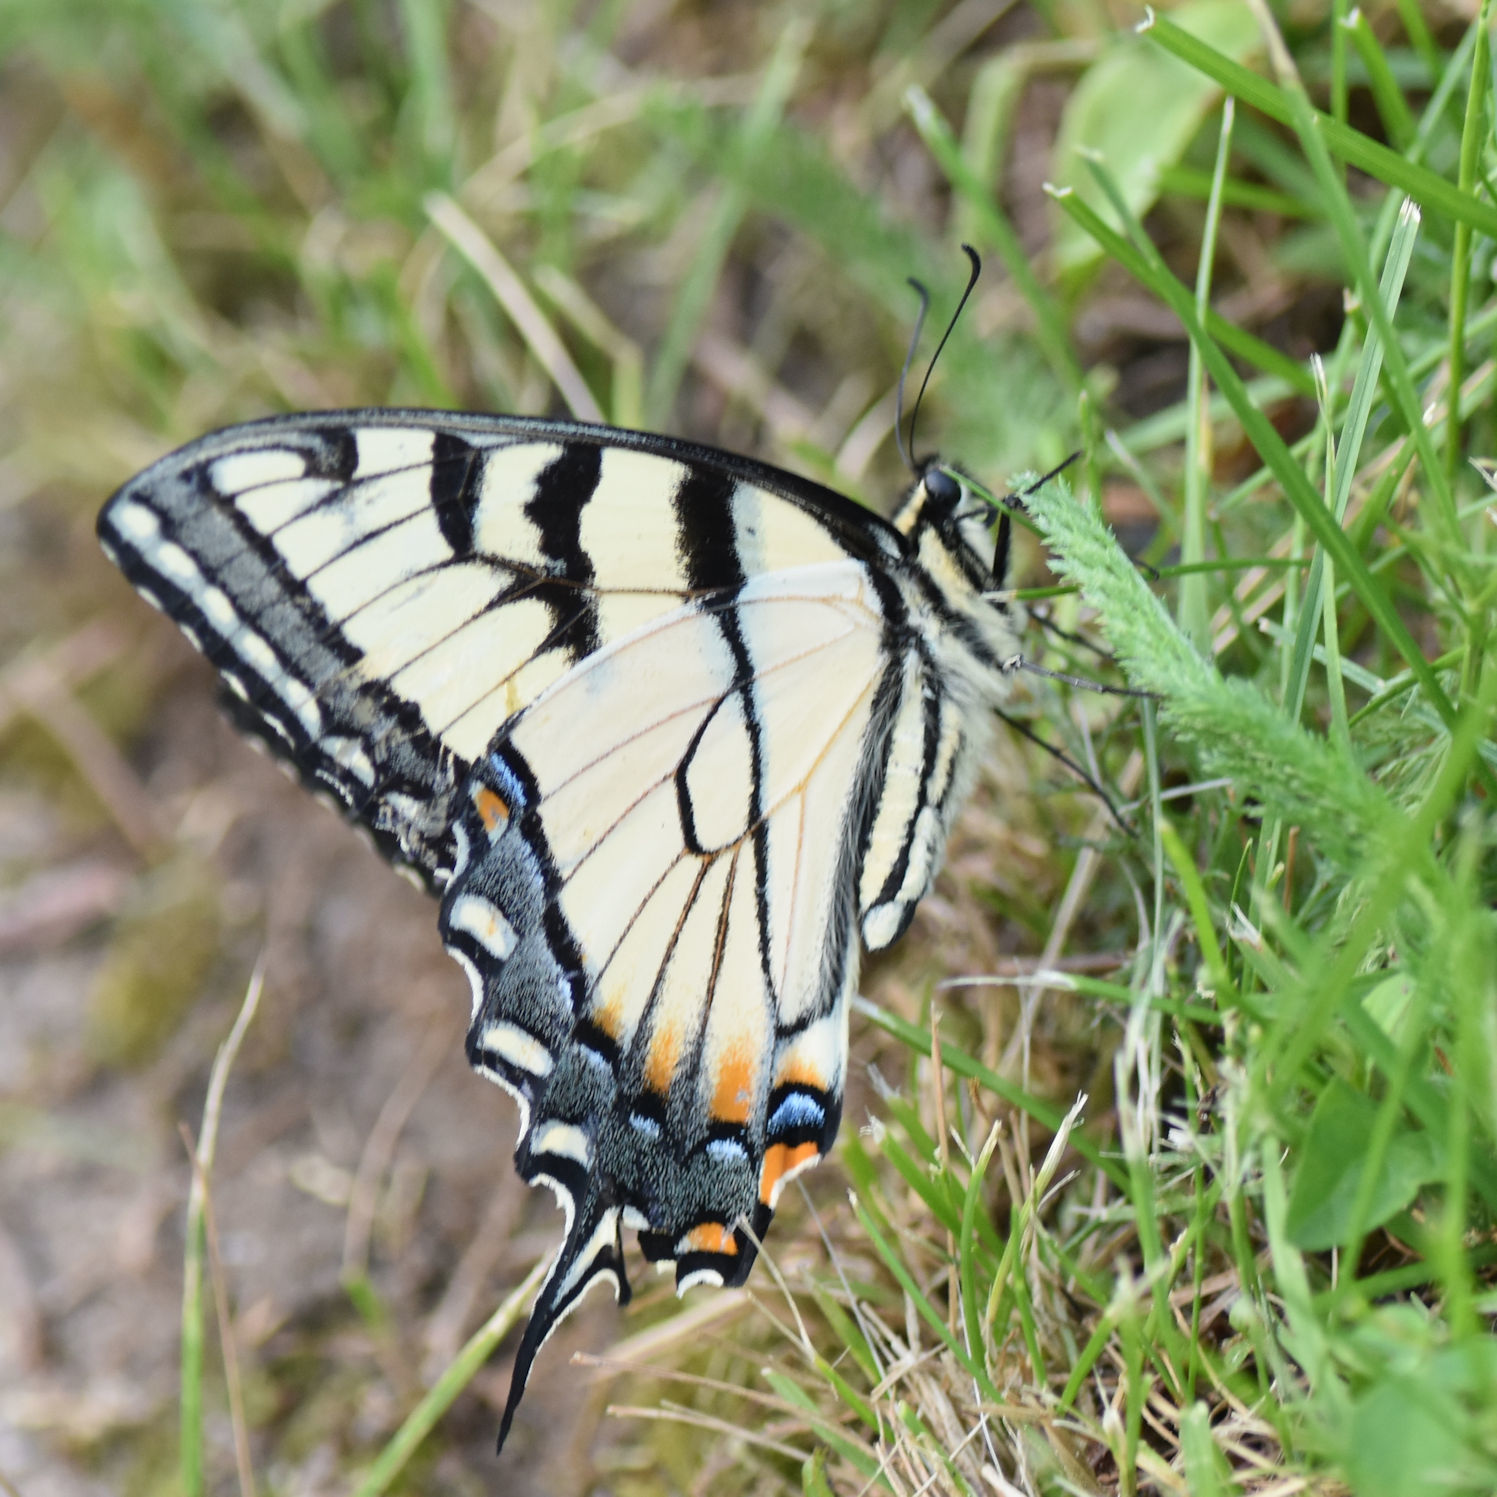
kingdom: Animalia
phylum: Arthropoda
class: Insecta
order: Lepidoptera
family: Papilionidae
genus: Papilio
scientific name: Papilio glaucus
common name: Tiger swallowtail
